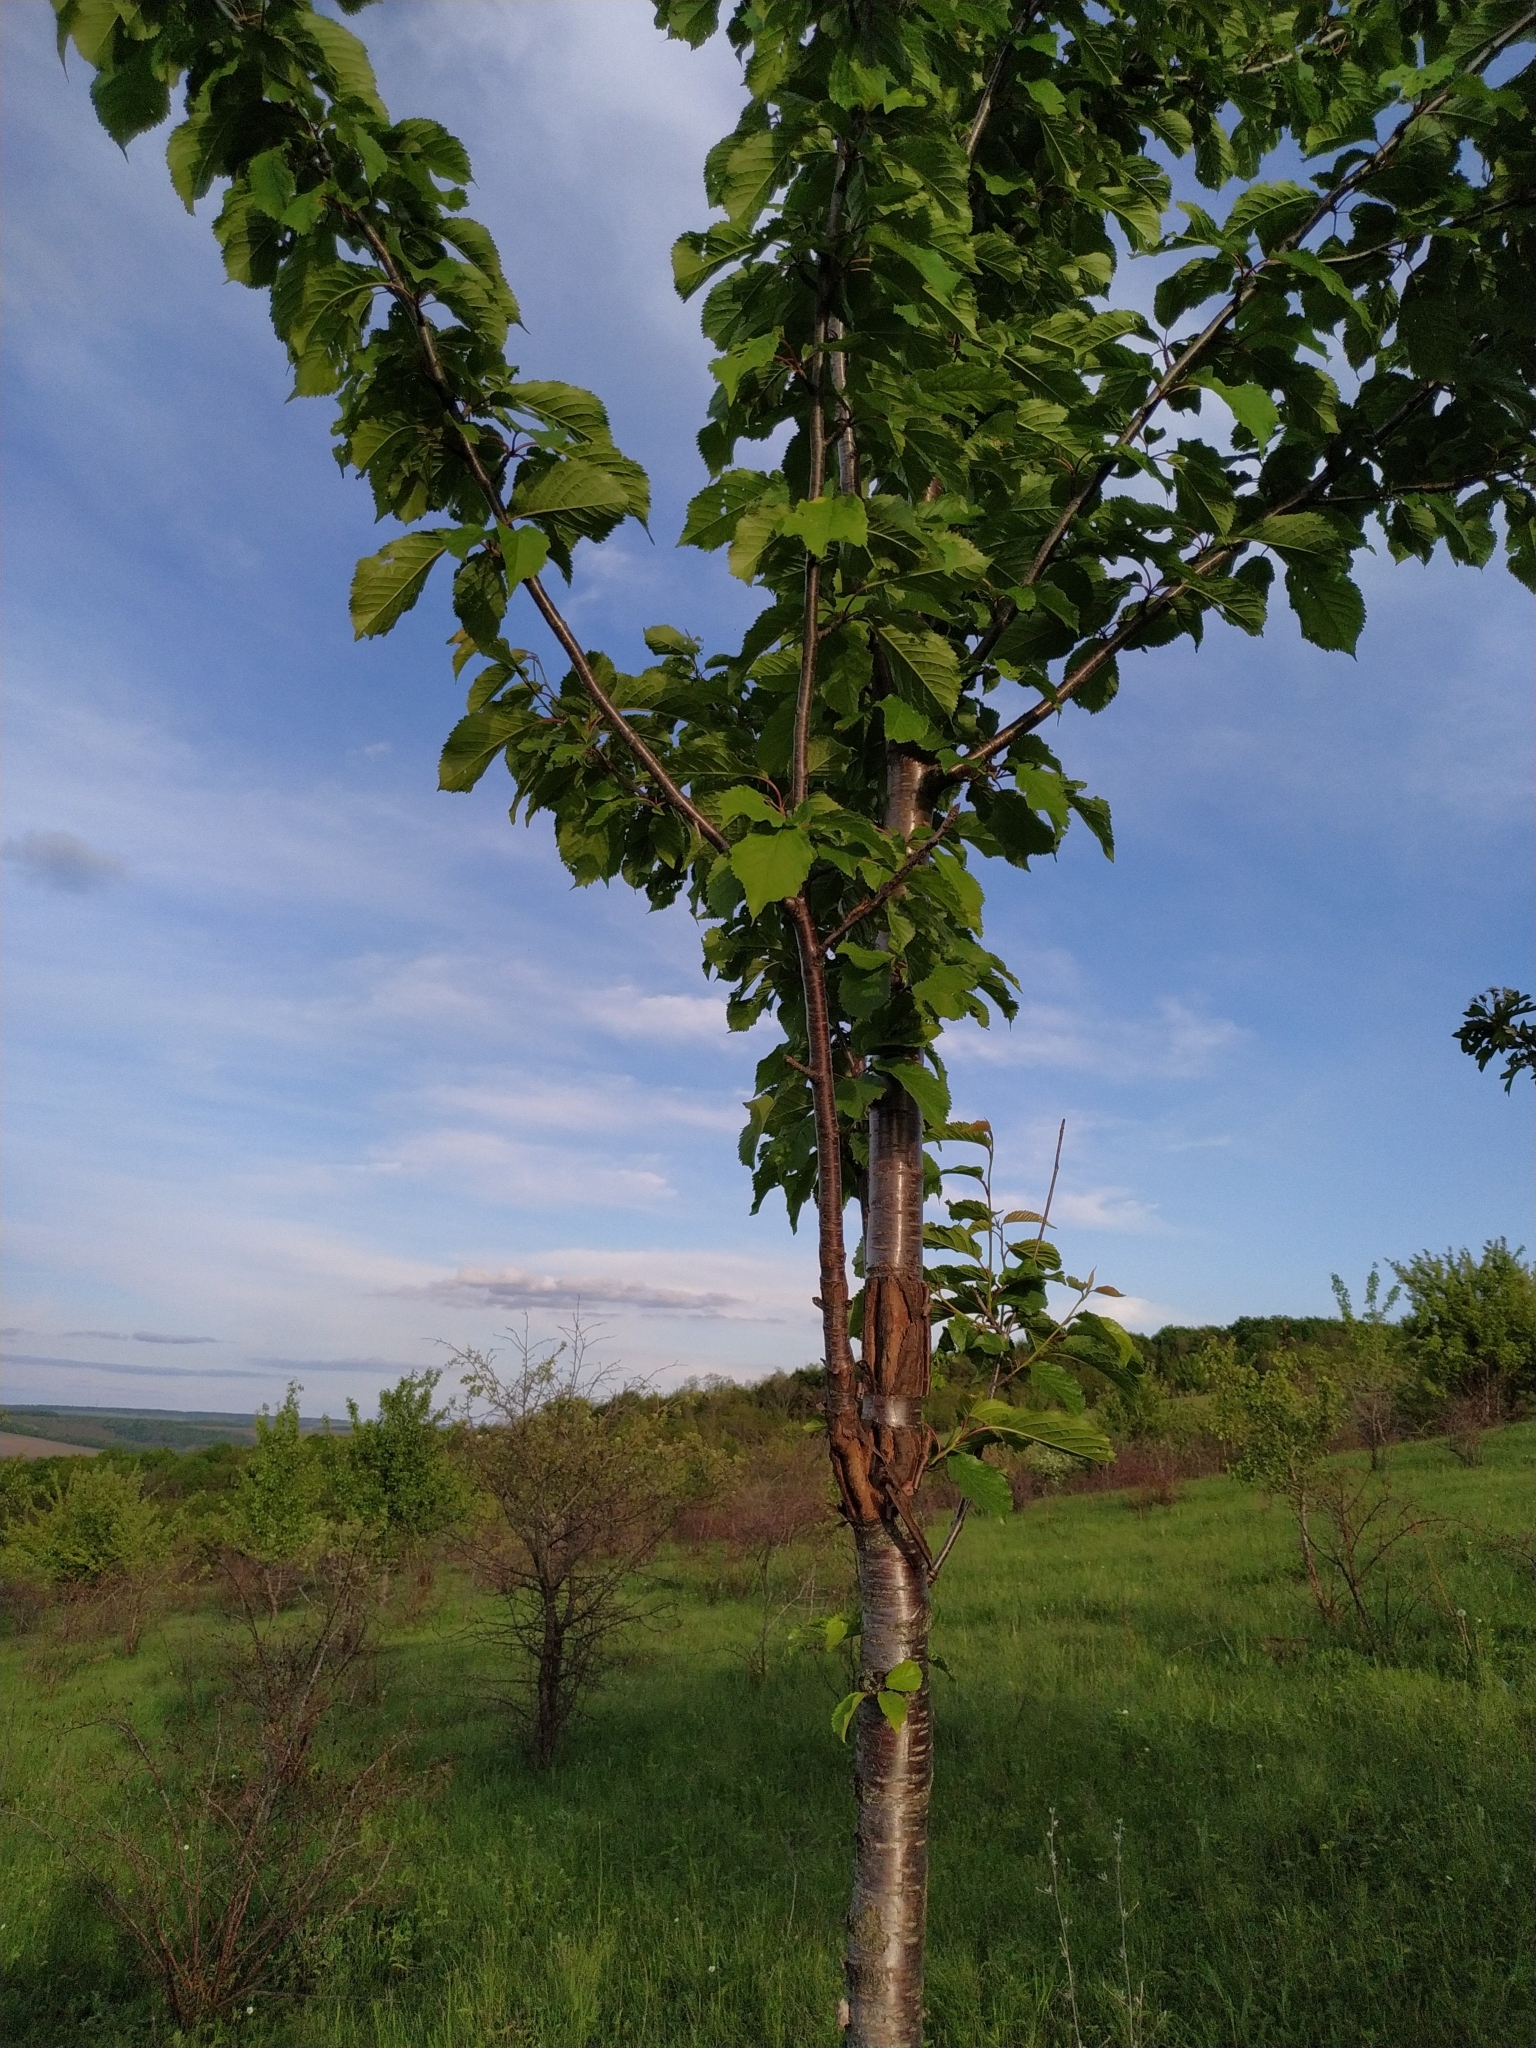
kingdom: Plantae
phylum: Tracheophyta
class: Magnoliopsida
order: Rosales
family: Rosaceae
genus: Prunus
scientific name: Prunus avium
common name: Sweet cherry
